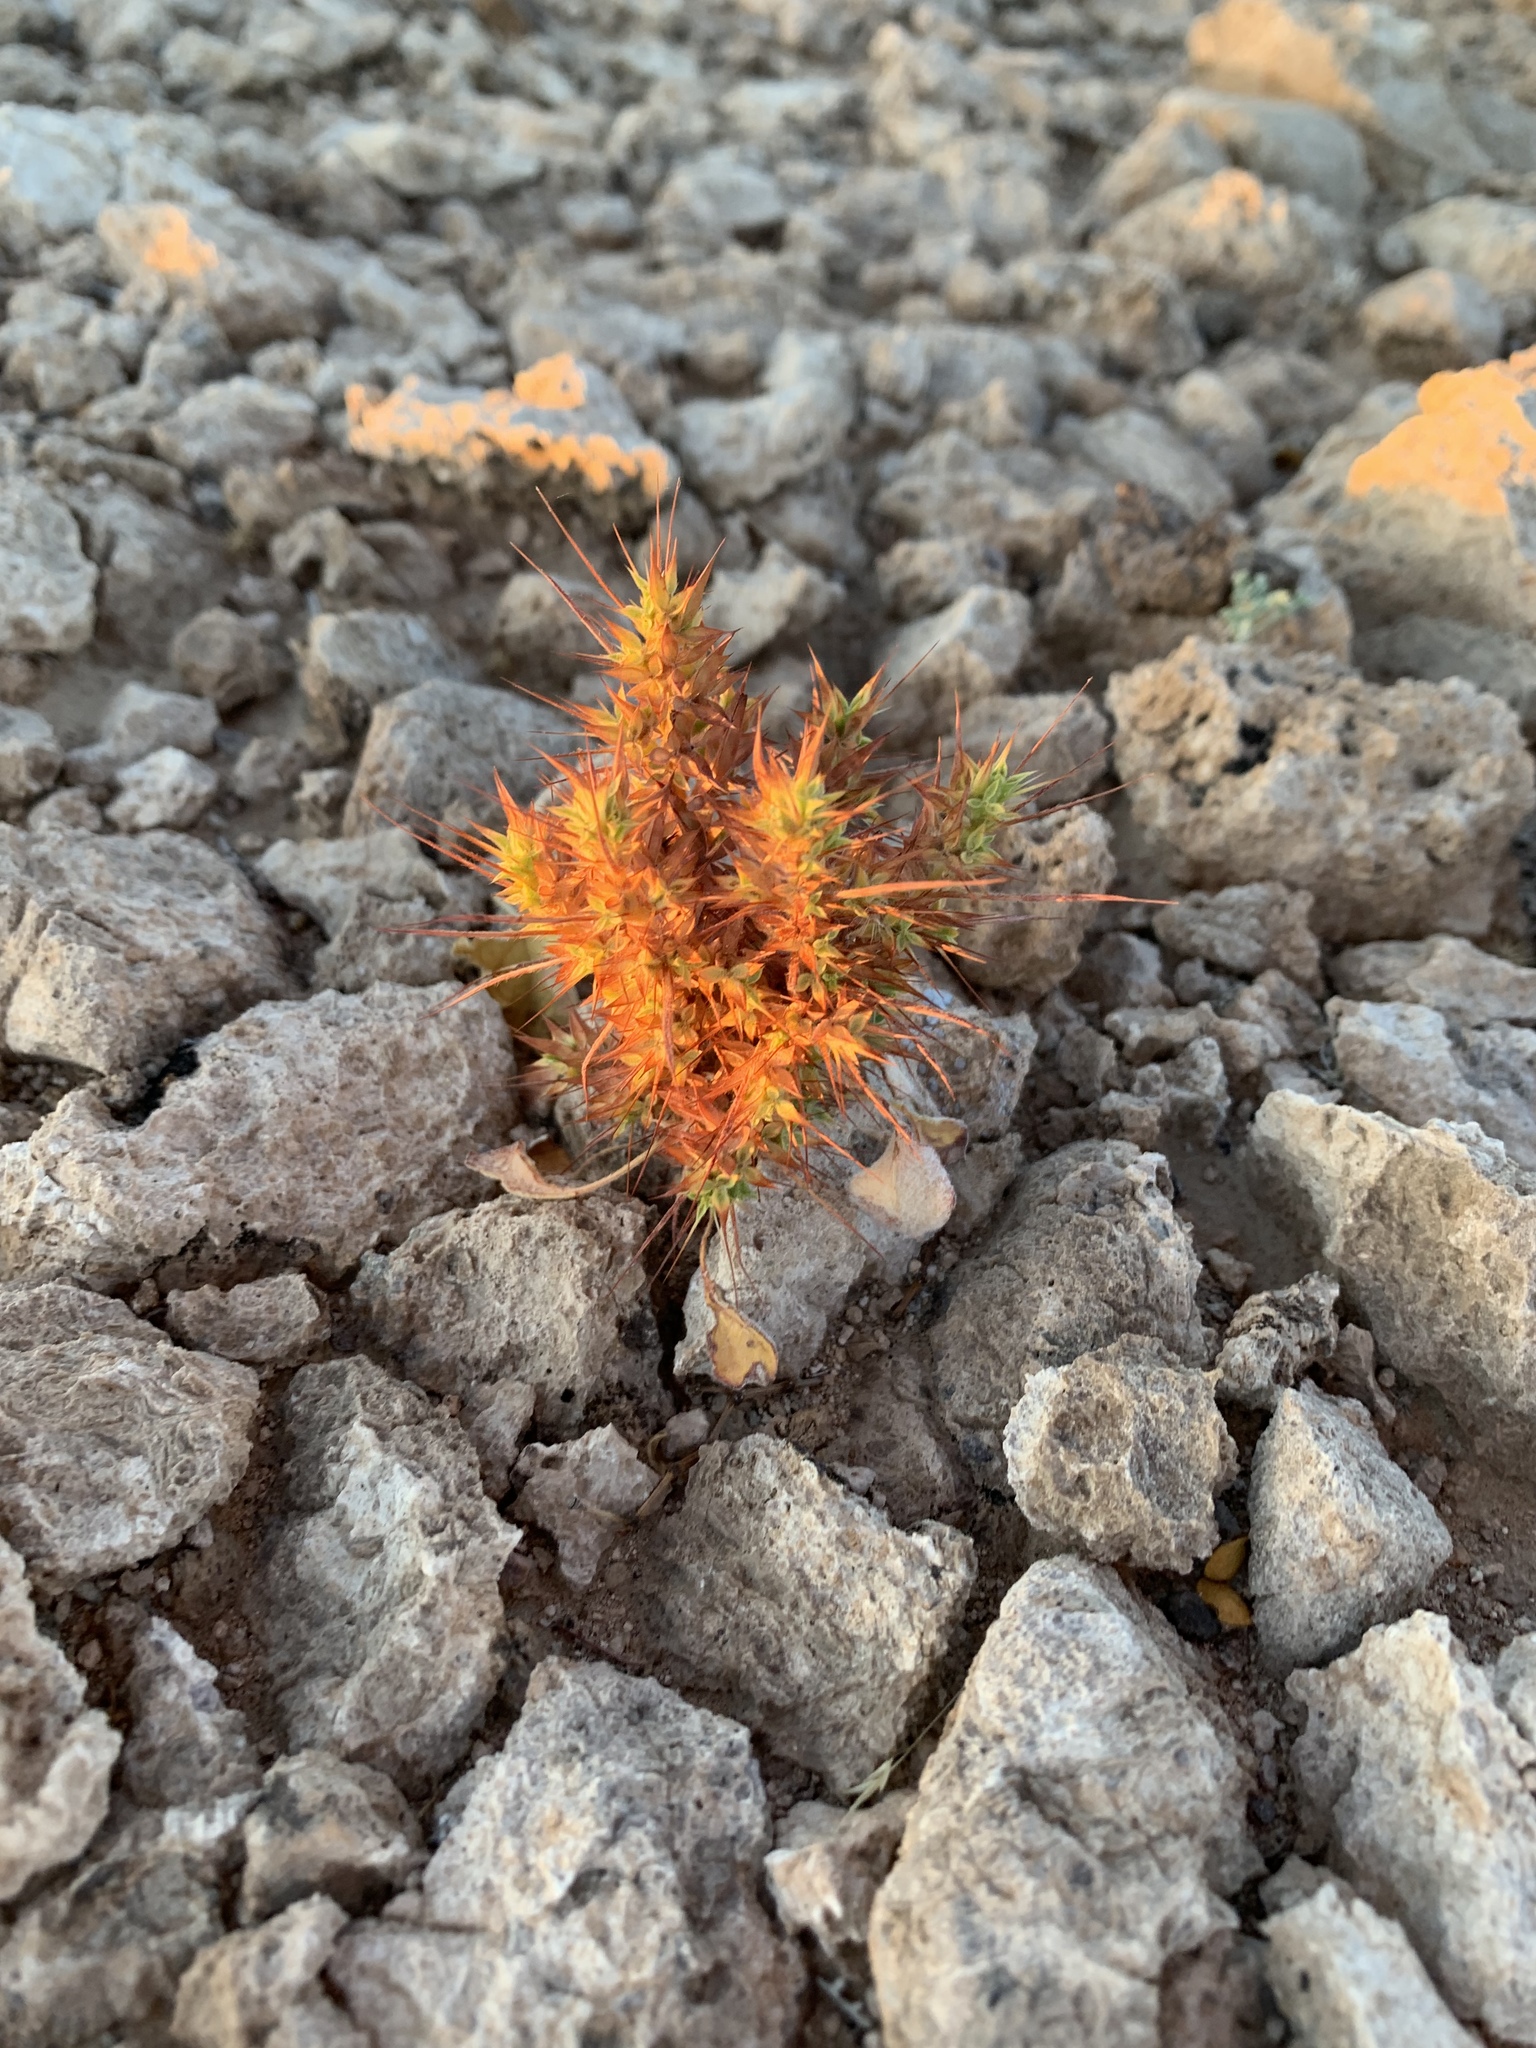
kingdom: Plantae
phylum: Tracheophyta
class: Magnoliopsida
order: Caryophyllales
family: Polygonaceae
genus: Chorizanthe
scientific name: Chorizanthe rigida
